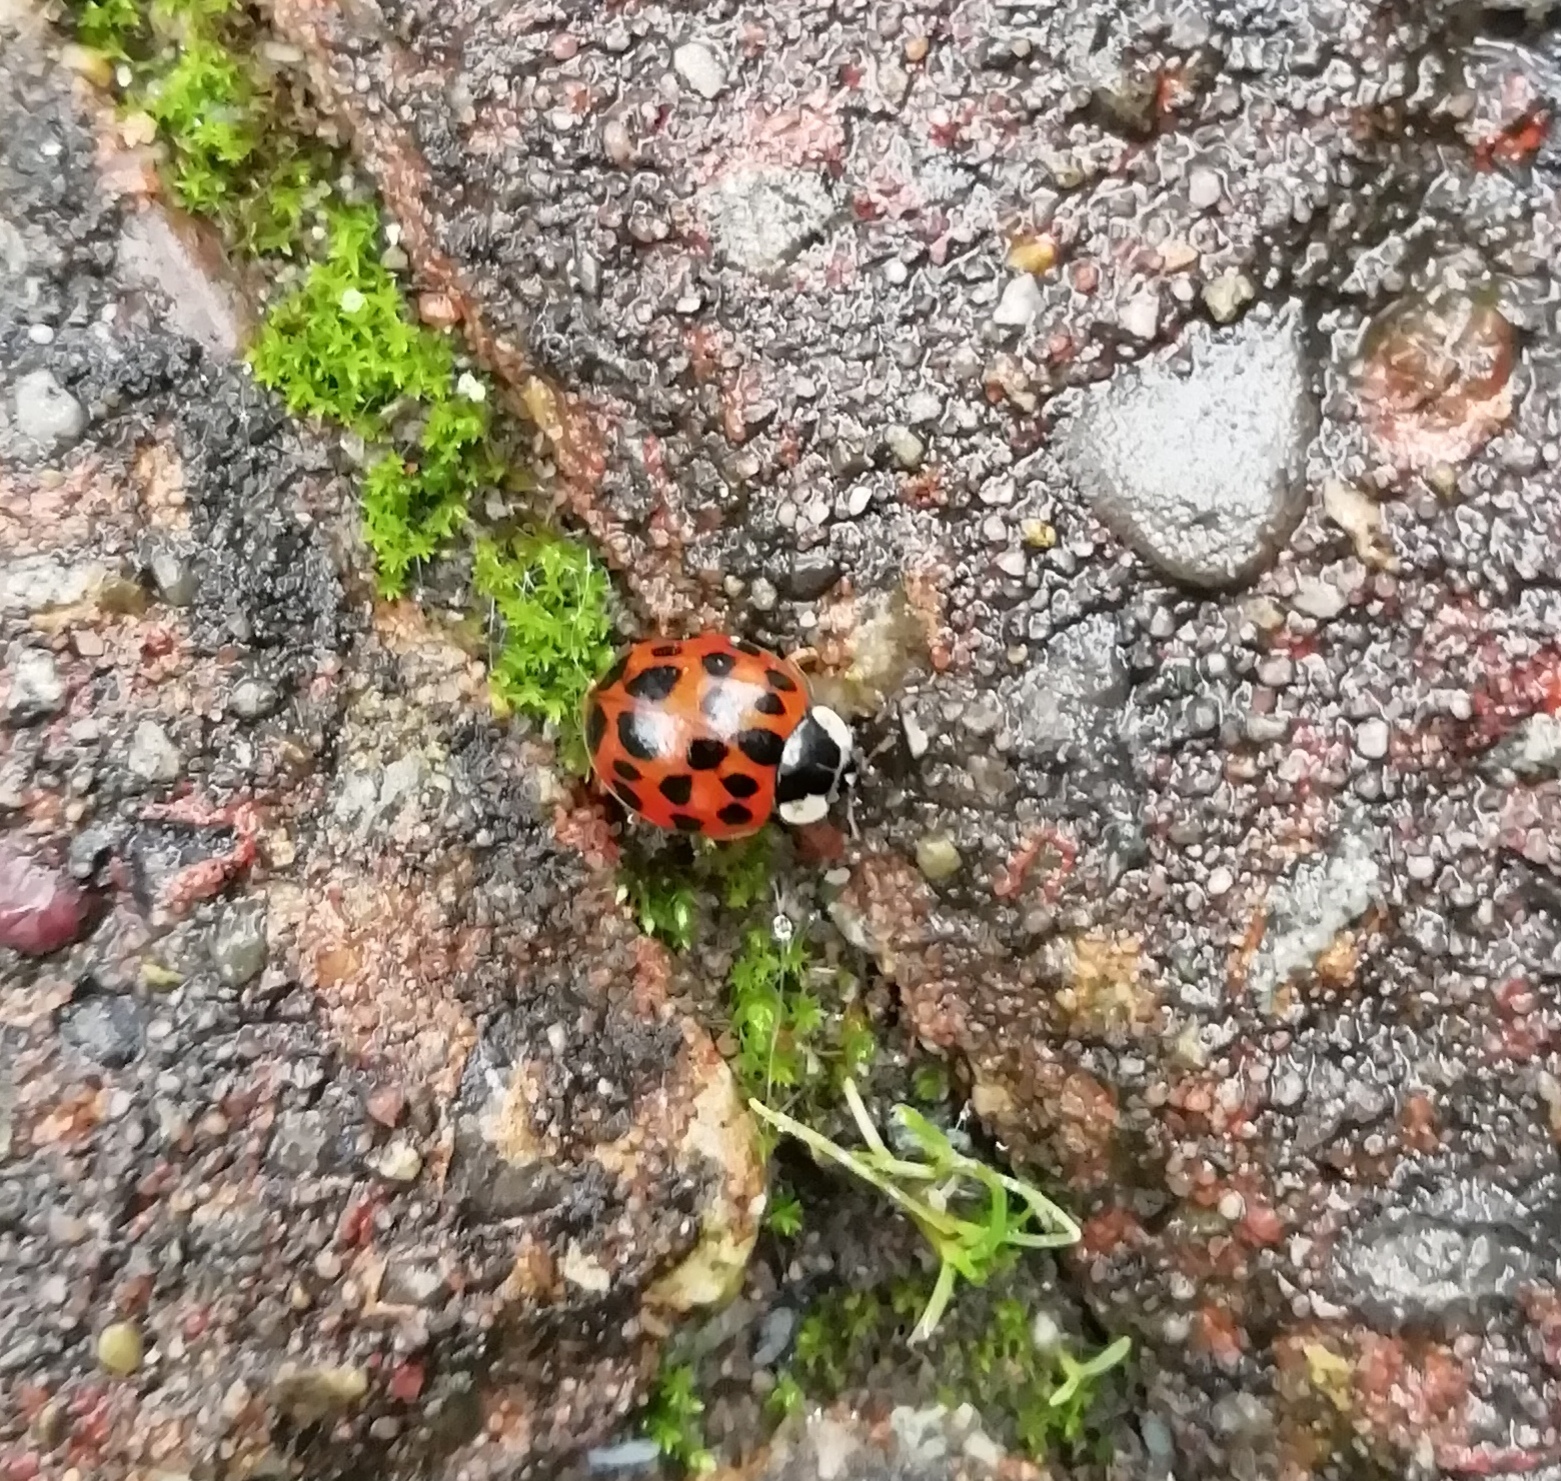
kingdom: Animalia
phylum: Arthropoda
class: Insecta
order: Coleoptera
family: Coccinellidae
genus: Harmonia
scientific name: Harmonia axyridis
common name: Harlequin ladybird
